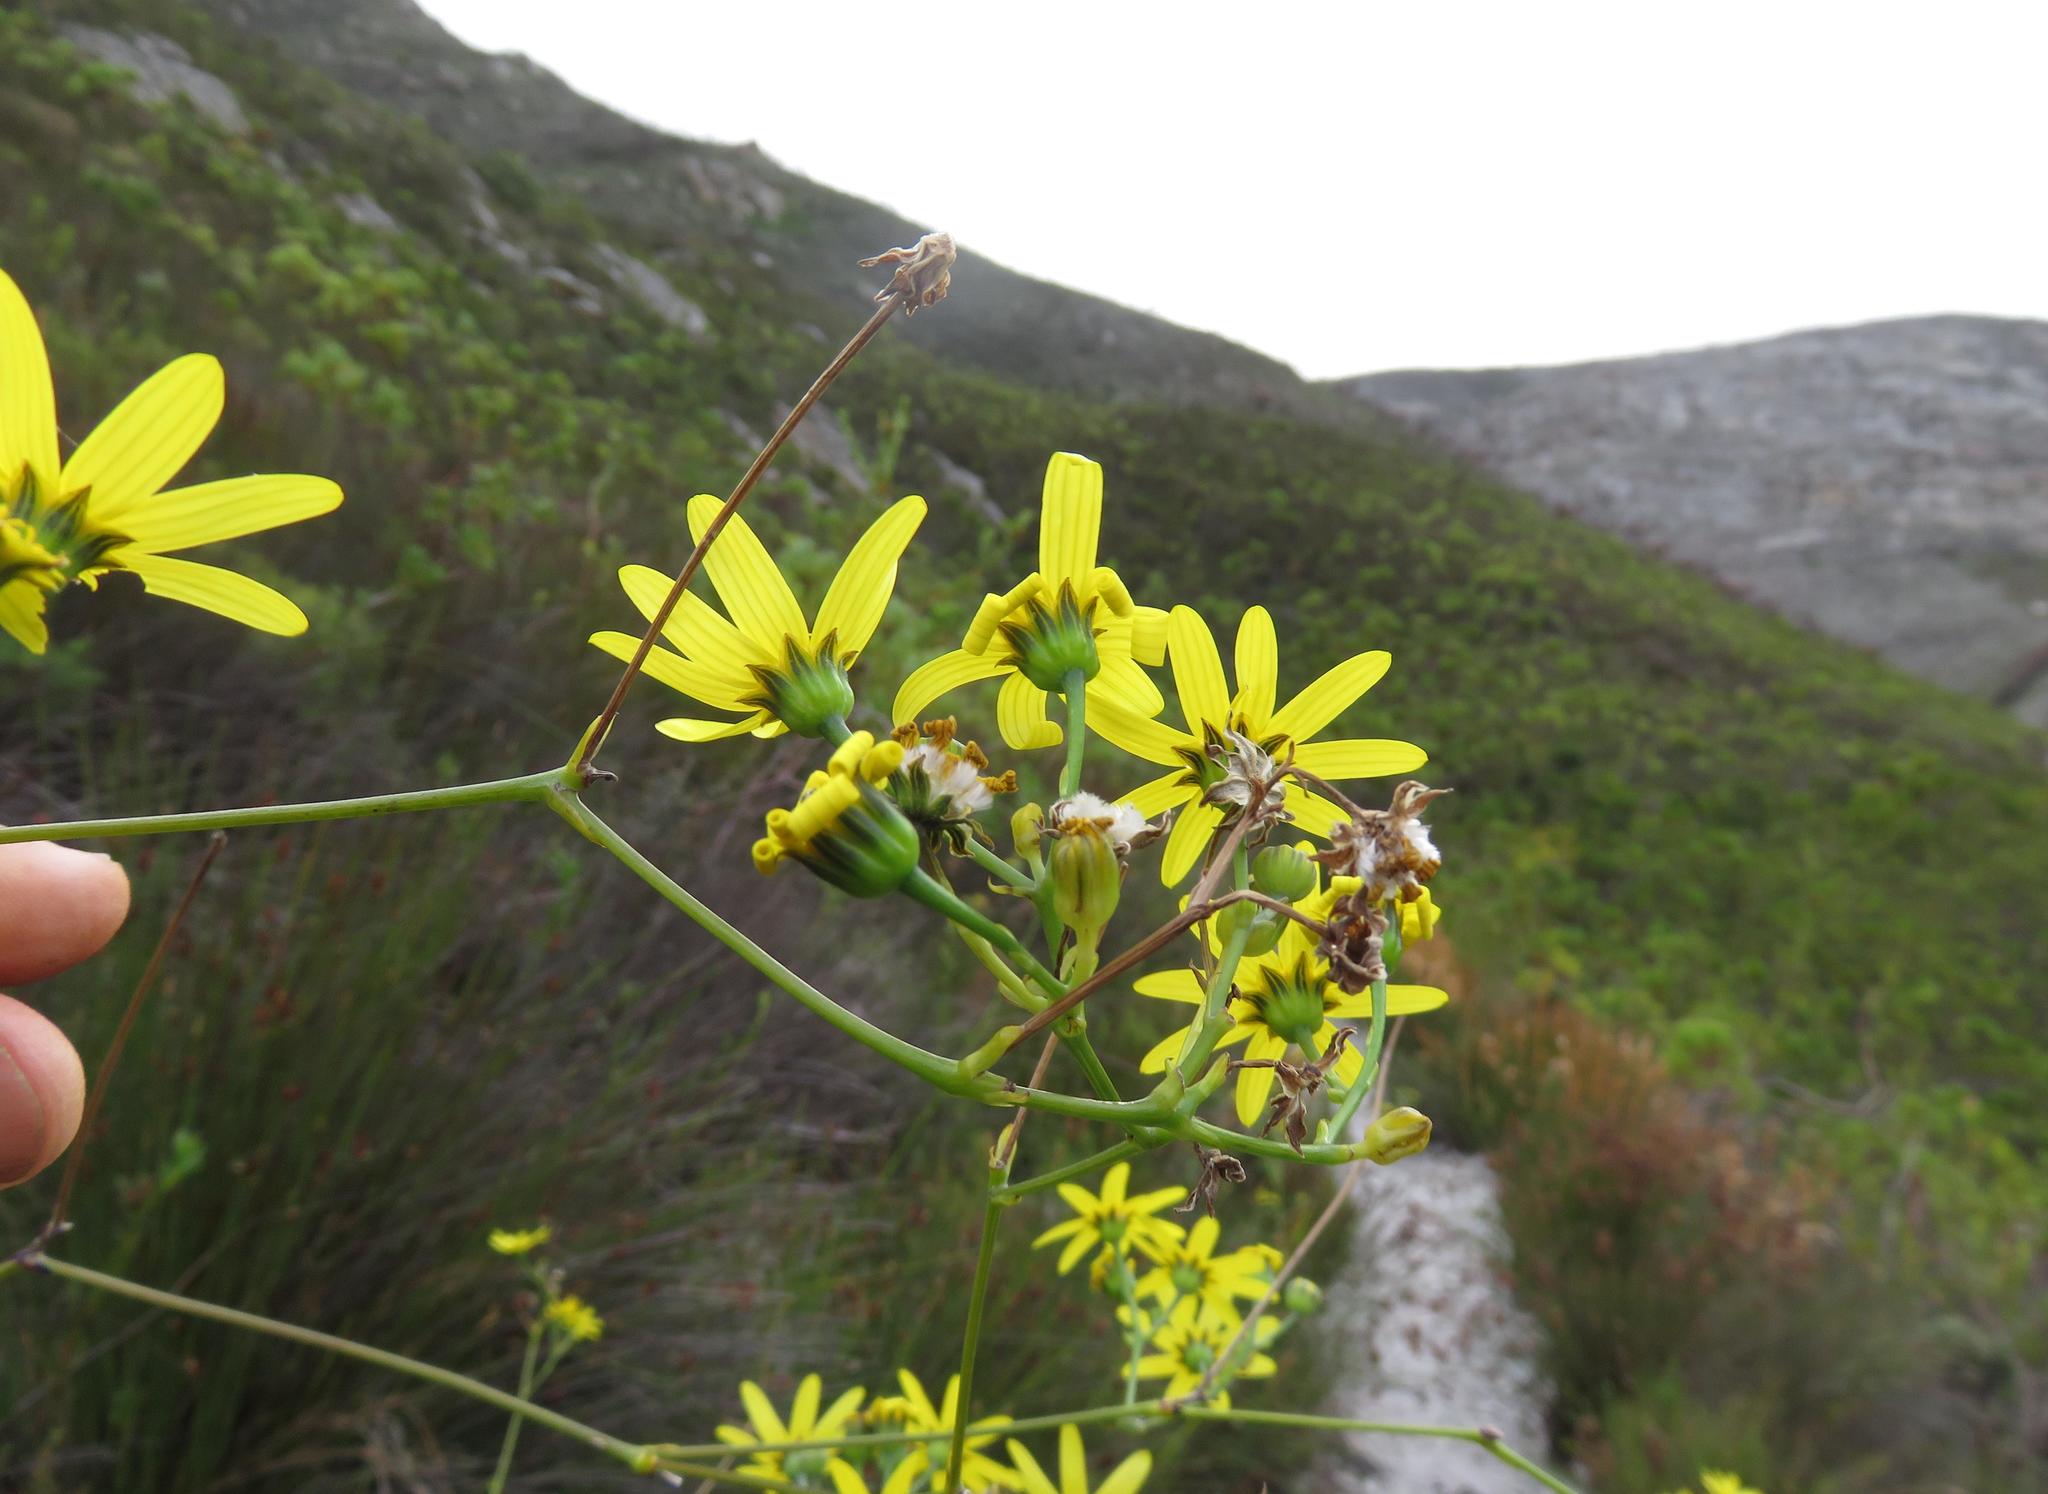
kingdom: Plantae
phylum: Tracheophyta
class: Magnoliopsida
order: Asterales
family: Asteraceae
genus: Othonna
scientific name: Othonna quinquedentata
